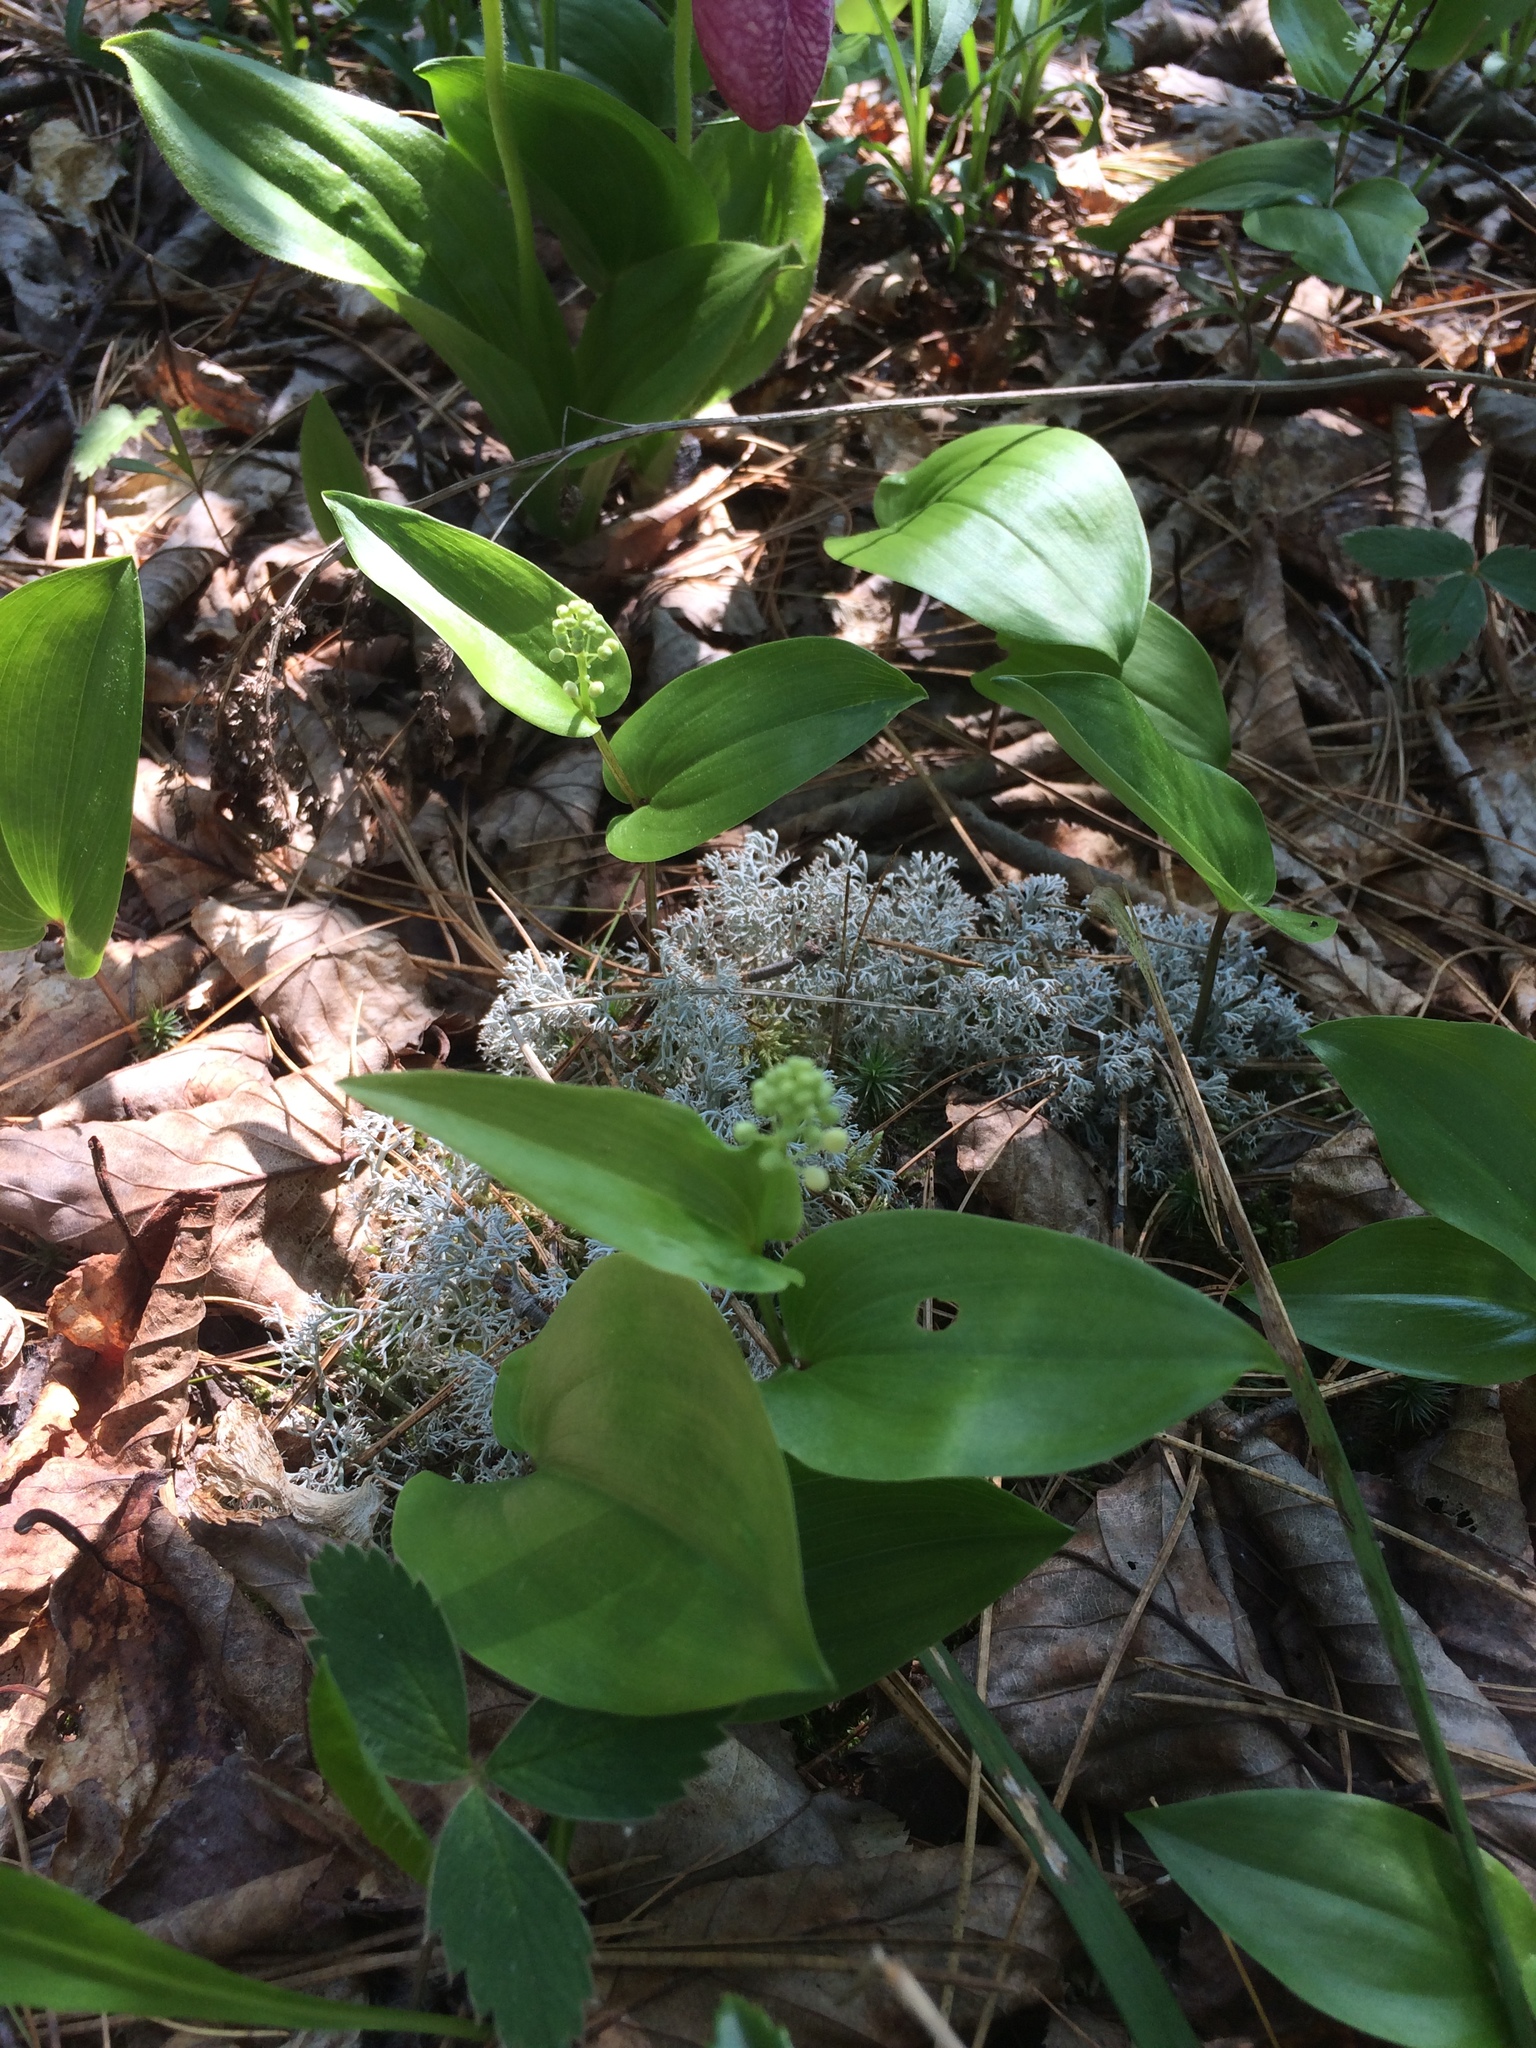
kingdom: Plantae
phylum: Tracheophyta
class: Liliopsida
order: Asparagales
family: Asparagaceae
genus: Maianthemum
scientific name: Maianthemum canadense
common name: False lily-of-the-valley
